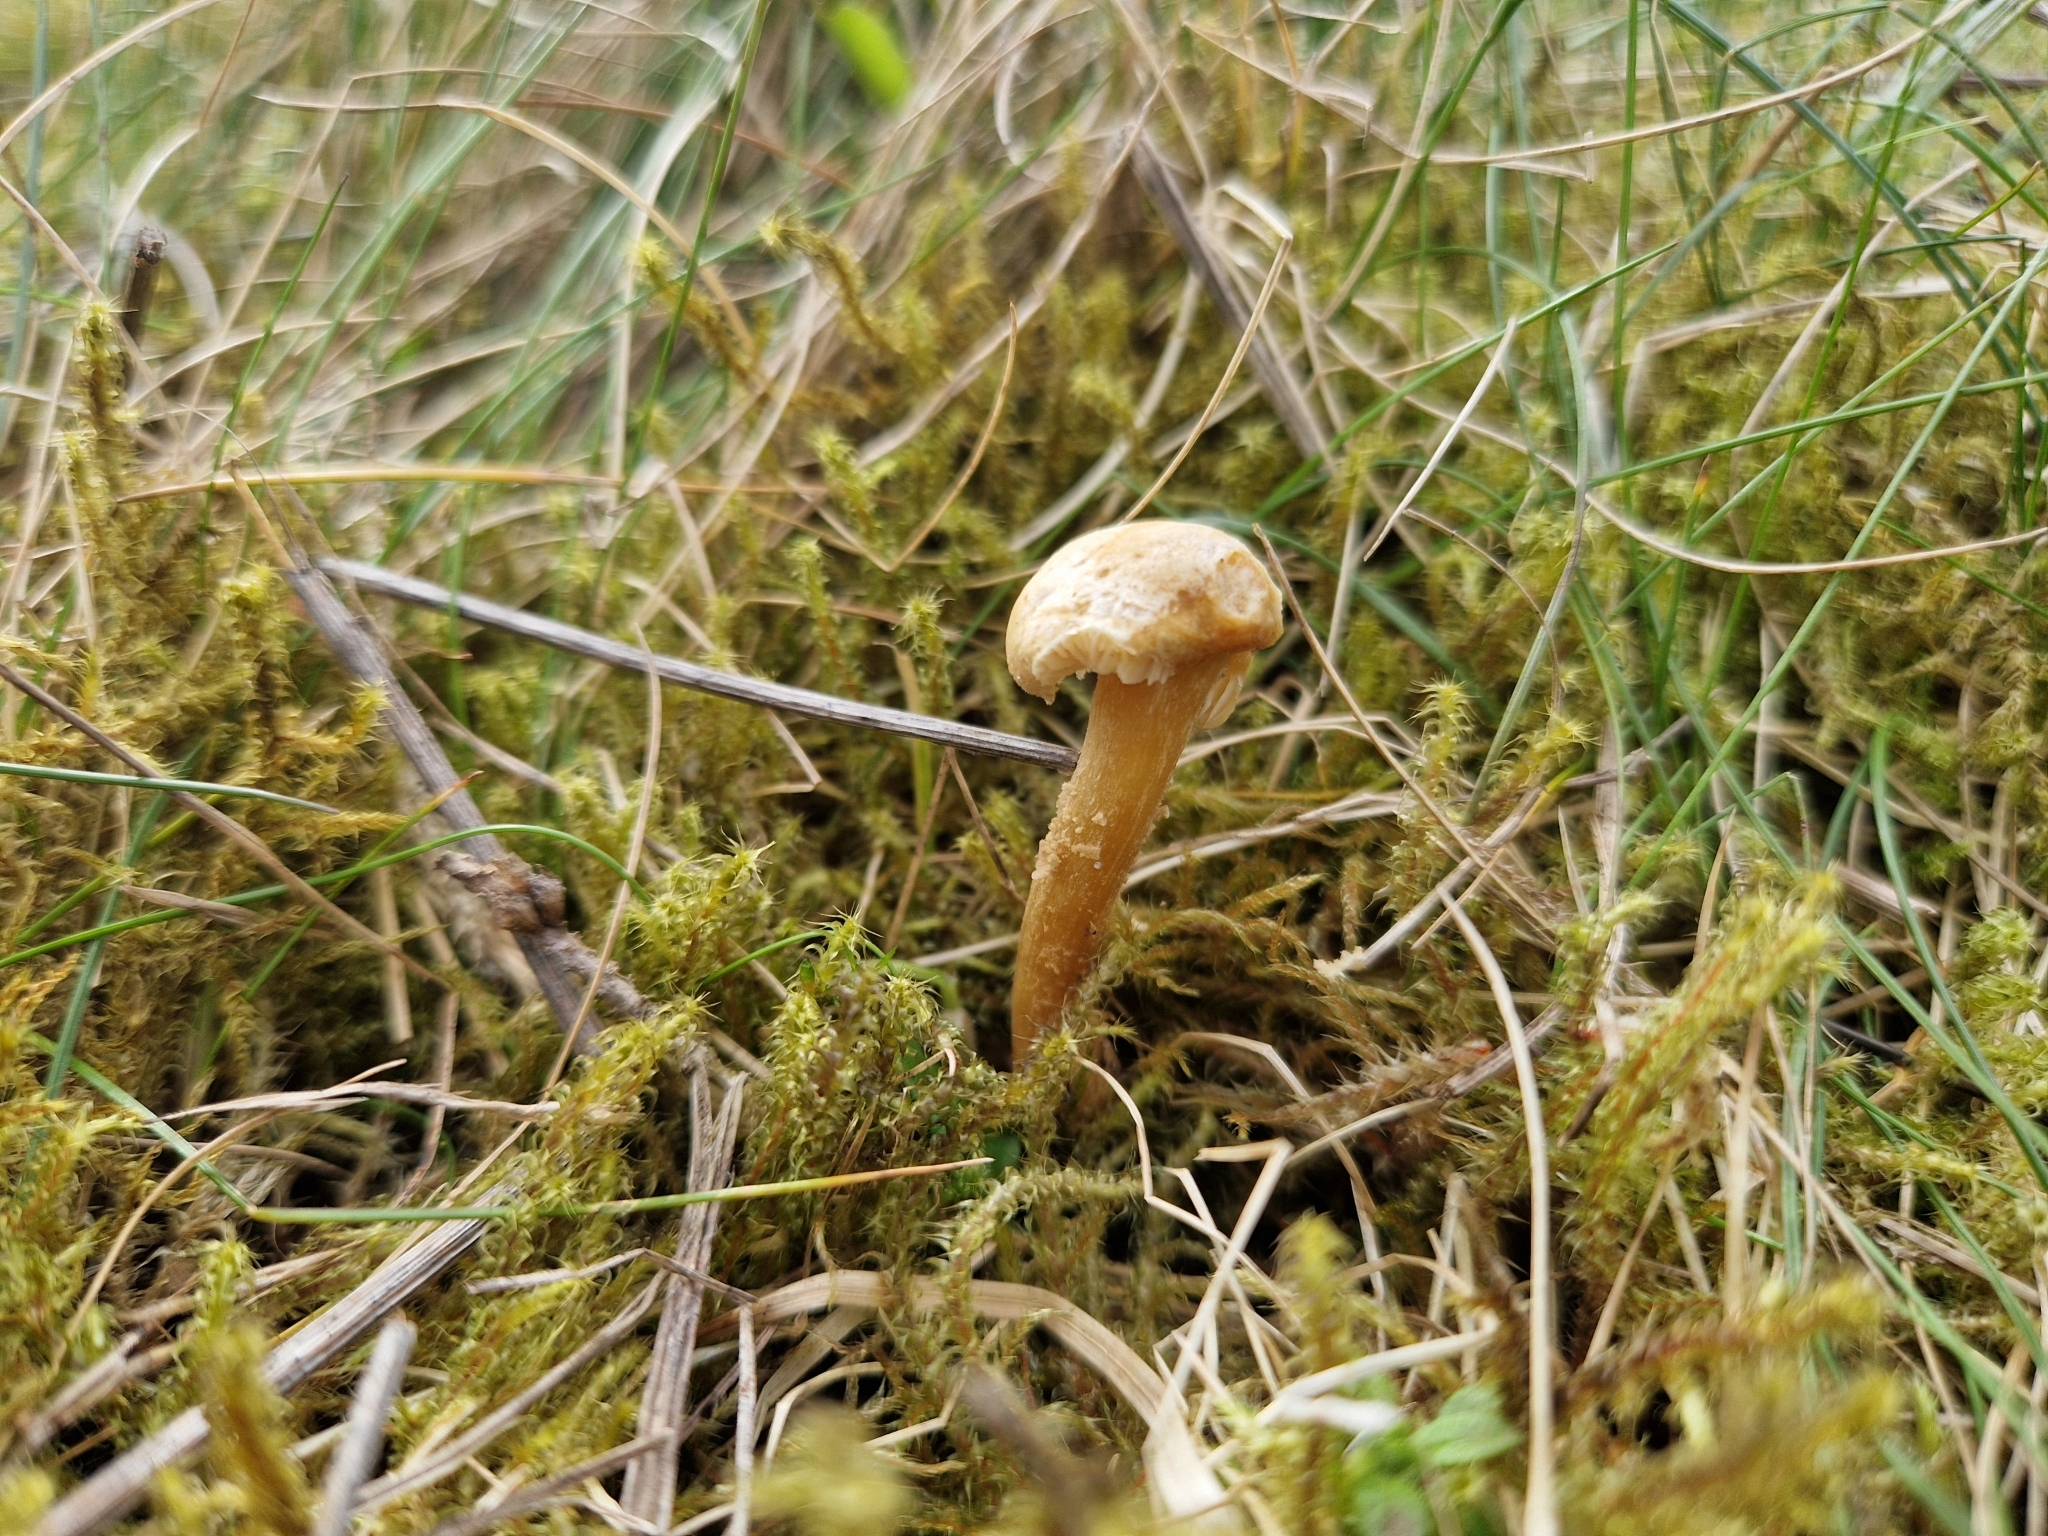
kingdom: Fungi
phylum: Basidiomycota
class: Agaricomycetes
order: Agaricales
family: Tricholomataceae
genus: Cystoderma
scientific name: Cystoderma amianthinum
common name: Earthy powdercap
